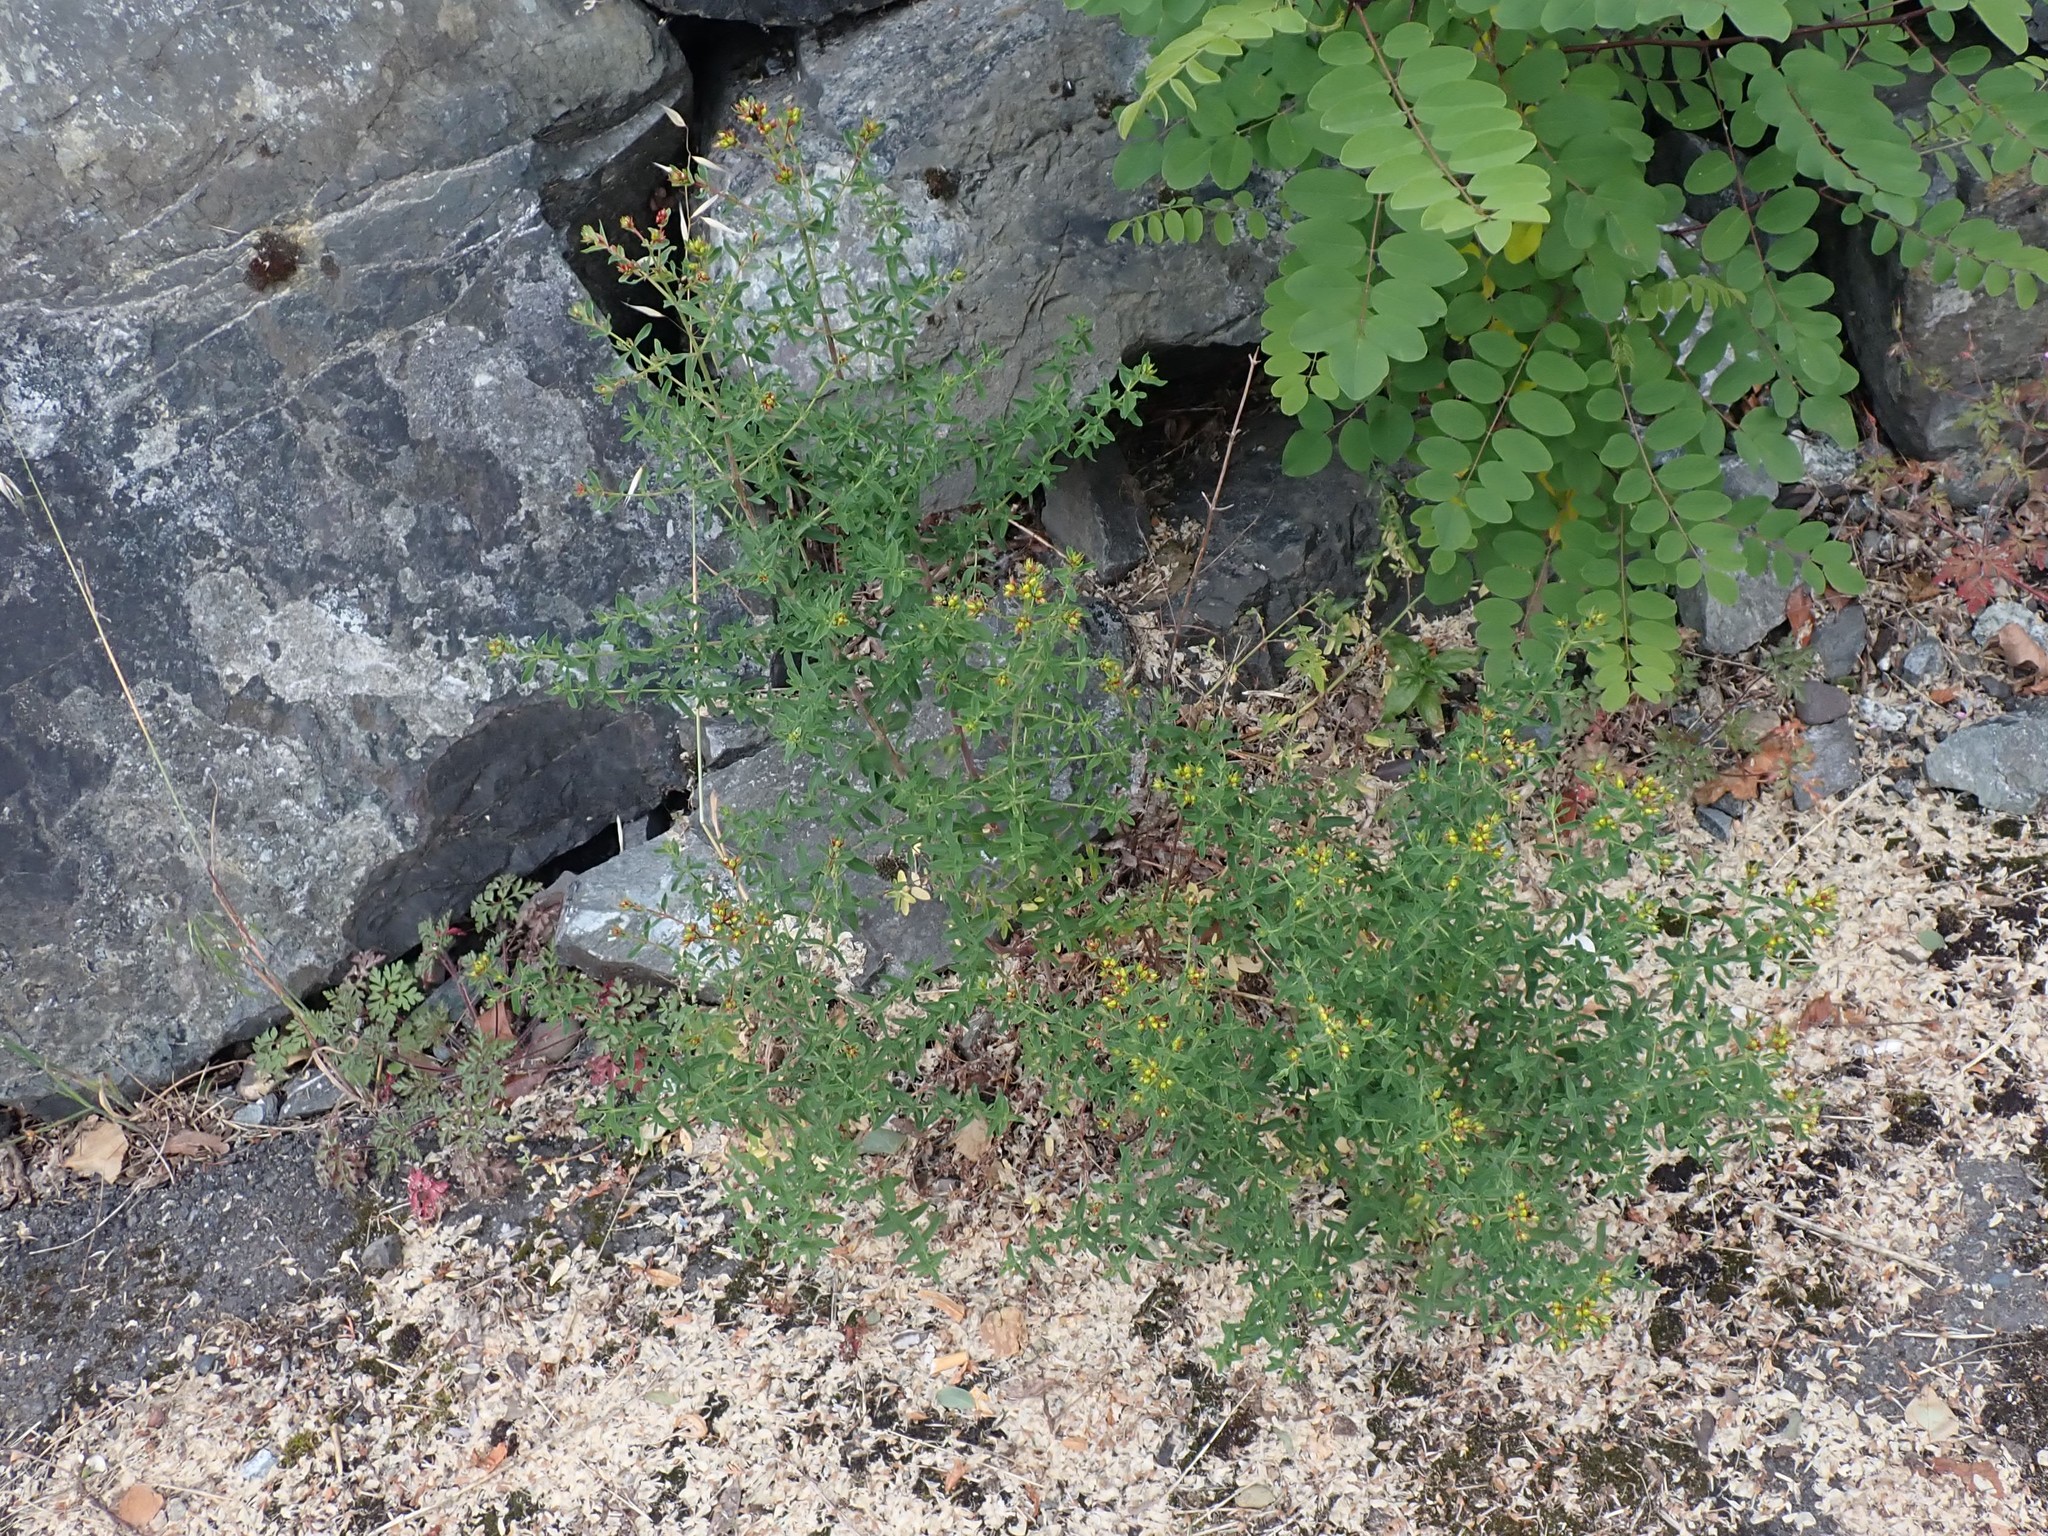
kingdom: Plantae
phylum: Tracheophyta
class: Magnoliopsida
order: Malpighiales
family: Hypericaceae
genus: Hypericum
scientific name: Hypericum perforatum
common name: Common st. johnswort
